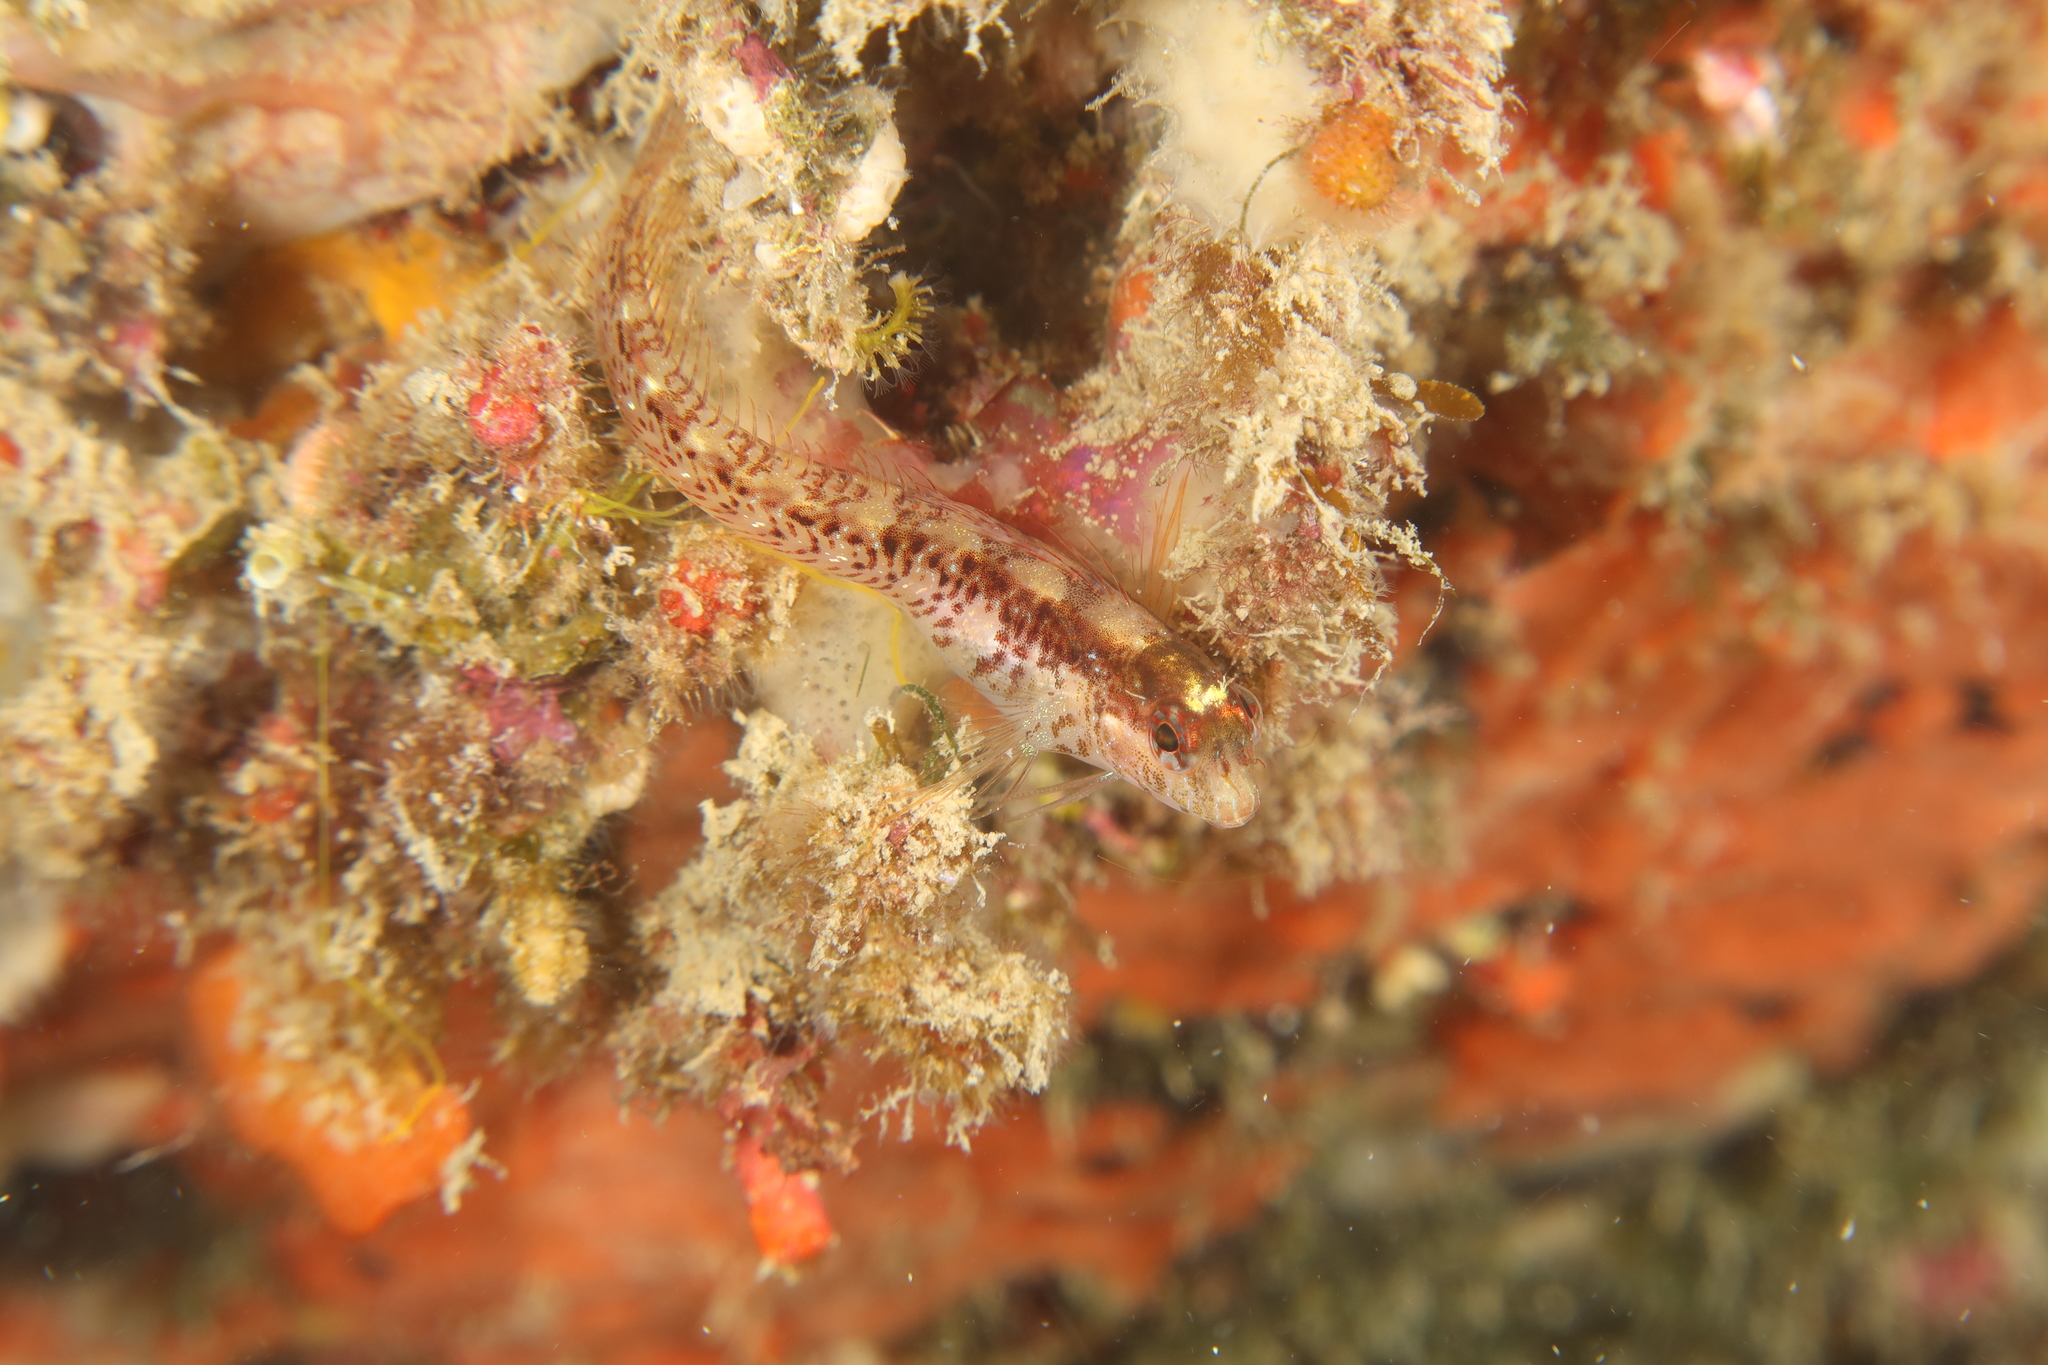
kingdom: Animalia
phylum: Chordata
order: Perciformes
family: Blenniidae
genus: Parablennius
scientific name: Parablennius rouxi
